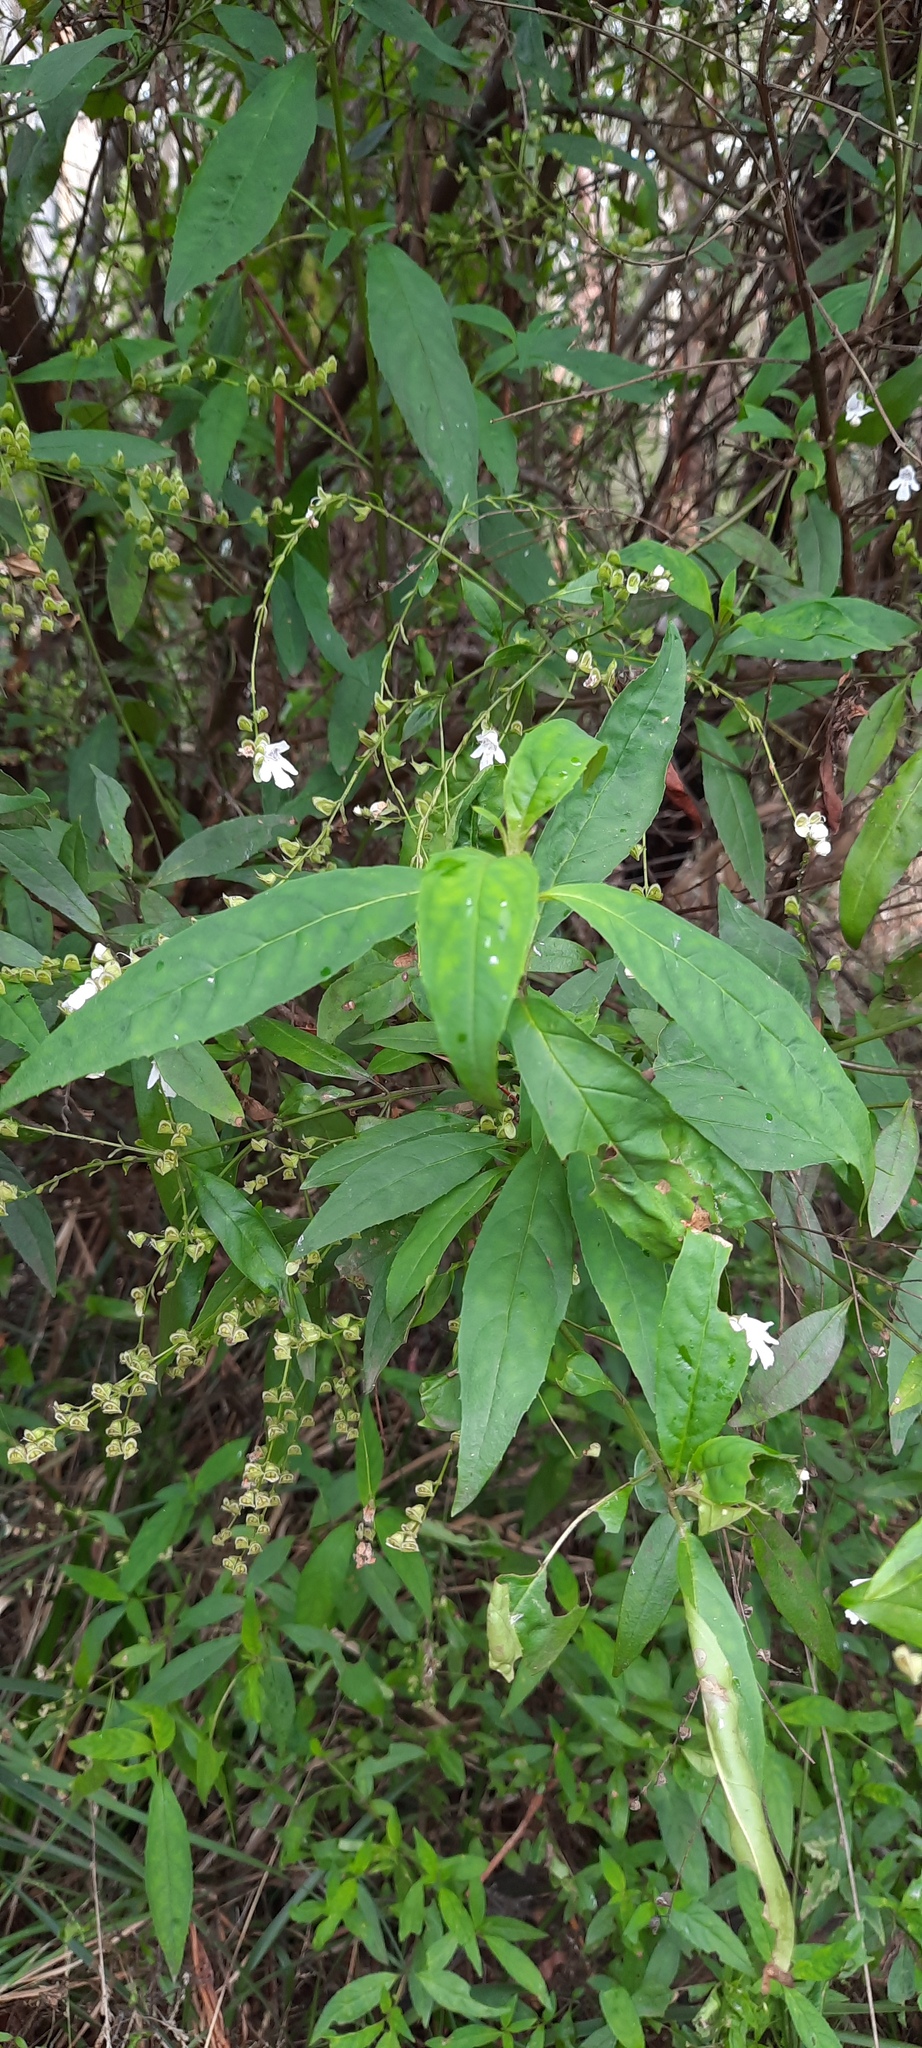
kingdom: Plantae
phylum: Tracheophyta
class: Magnoliopsida
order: Lamiales
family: Lamiaceae
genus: Prostanthera
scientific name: Prostanthera lasianthos
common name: Mountain-lilac
